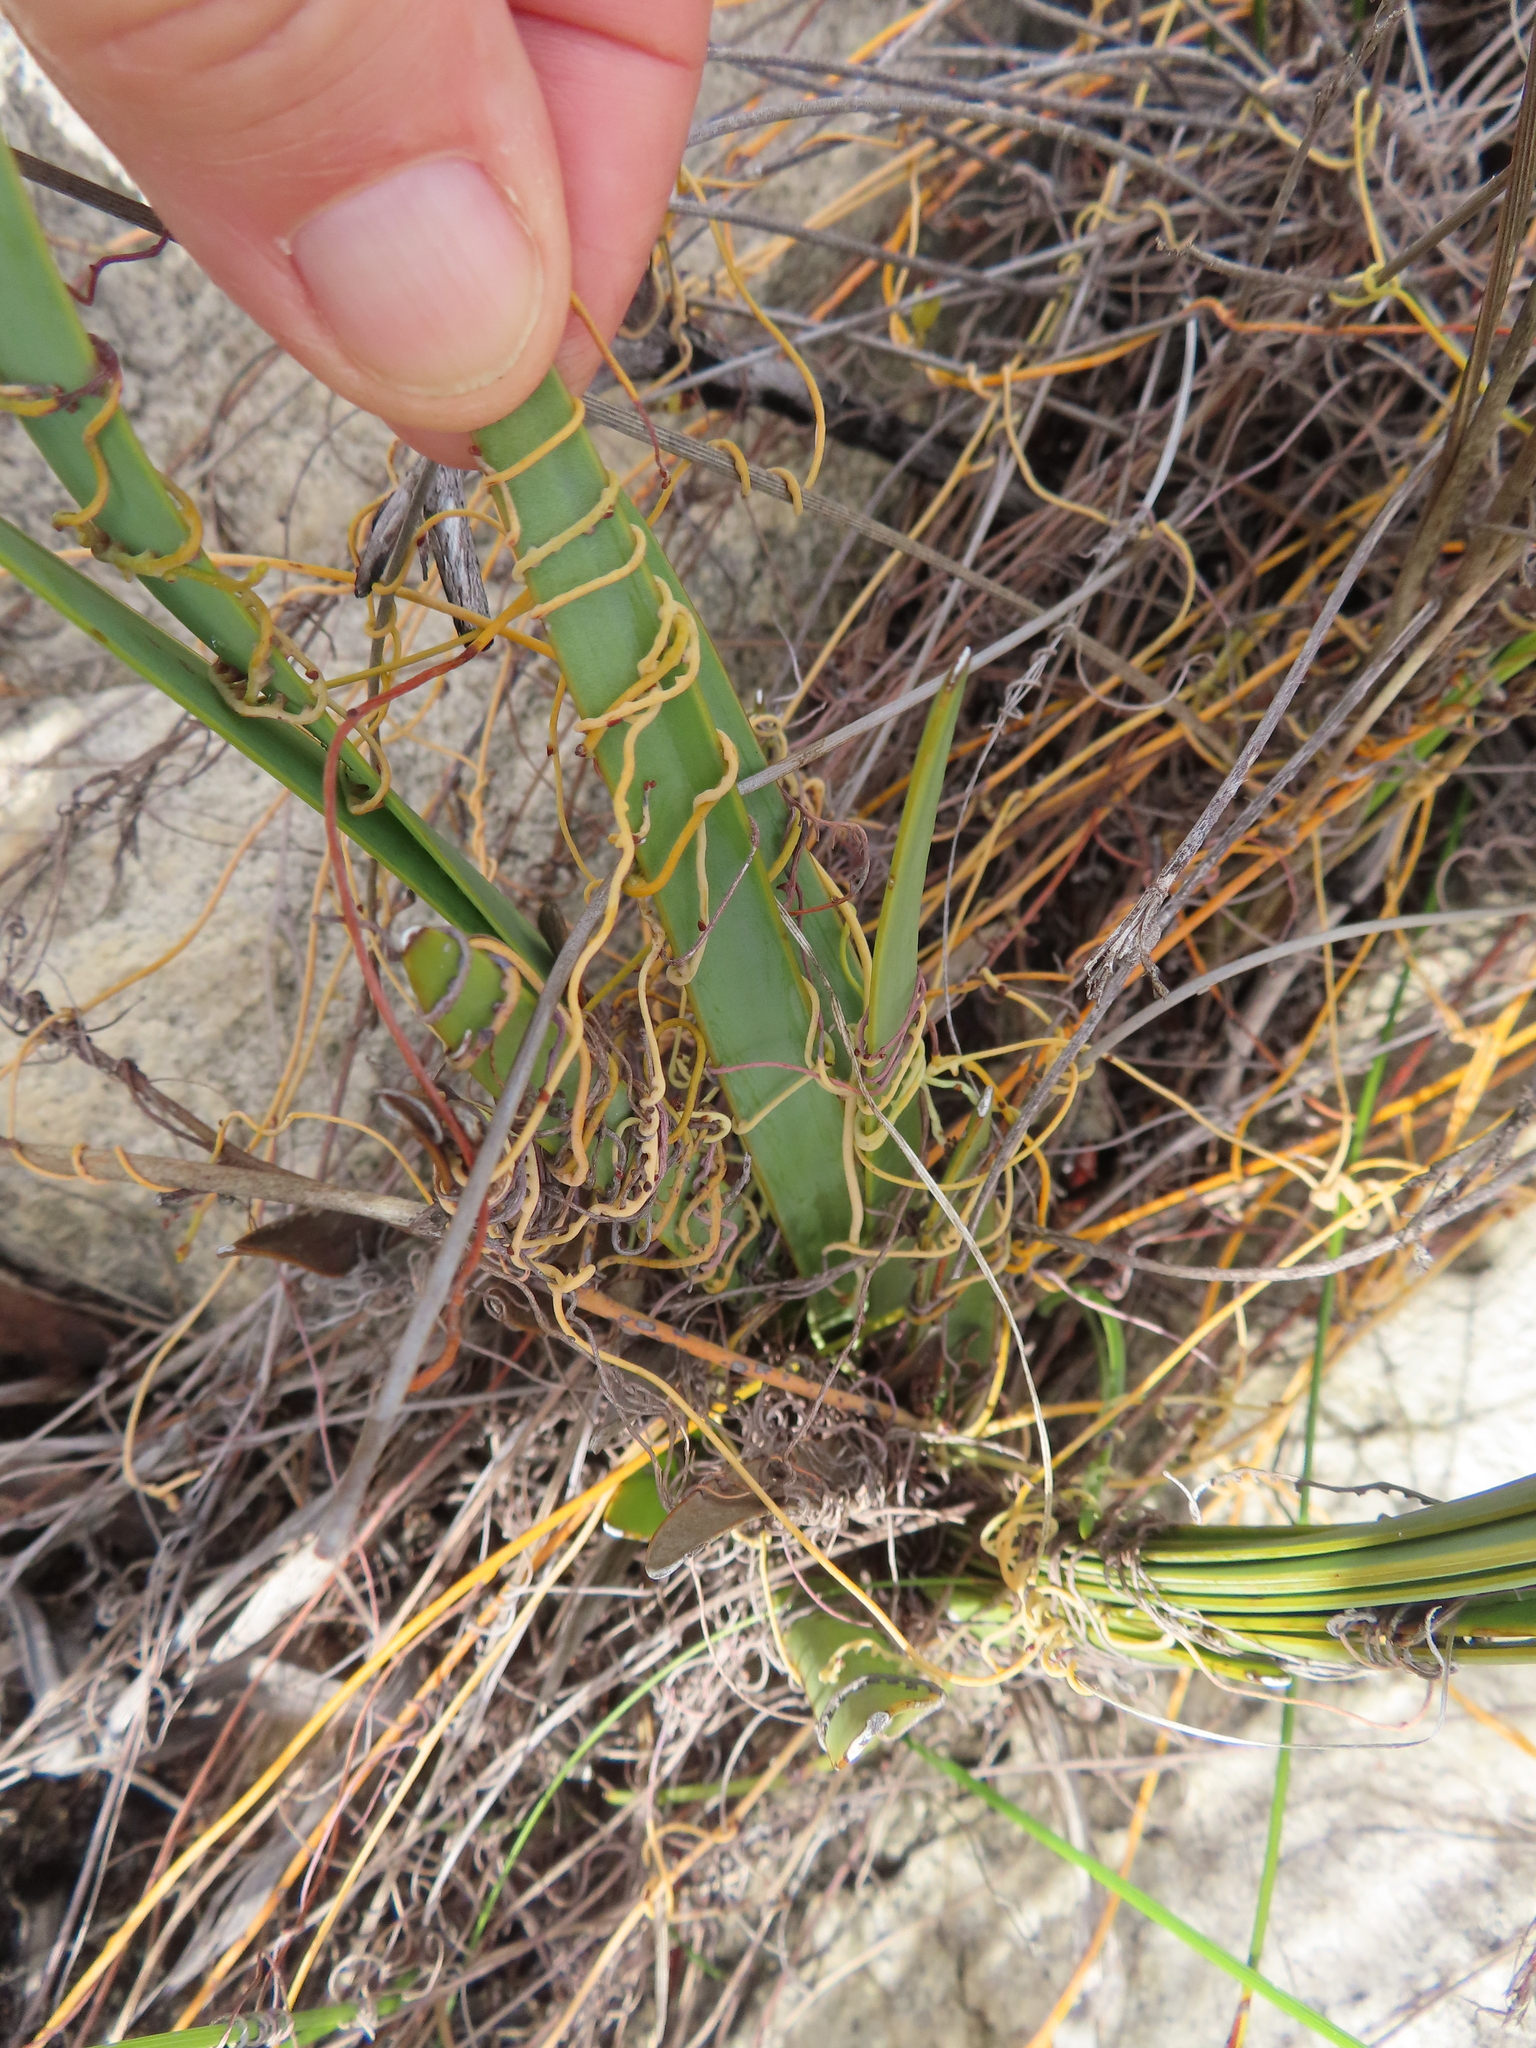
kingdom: Plantae
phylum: Tracheophyta
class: Magnoliopsida
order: Laurales
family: Lauraceae
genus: Cassytha
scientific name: Cassytha ciliolata
